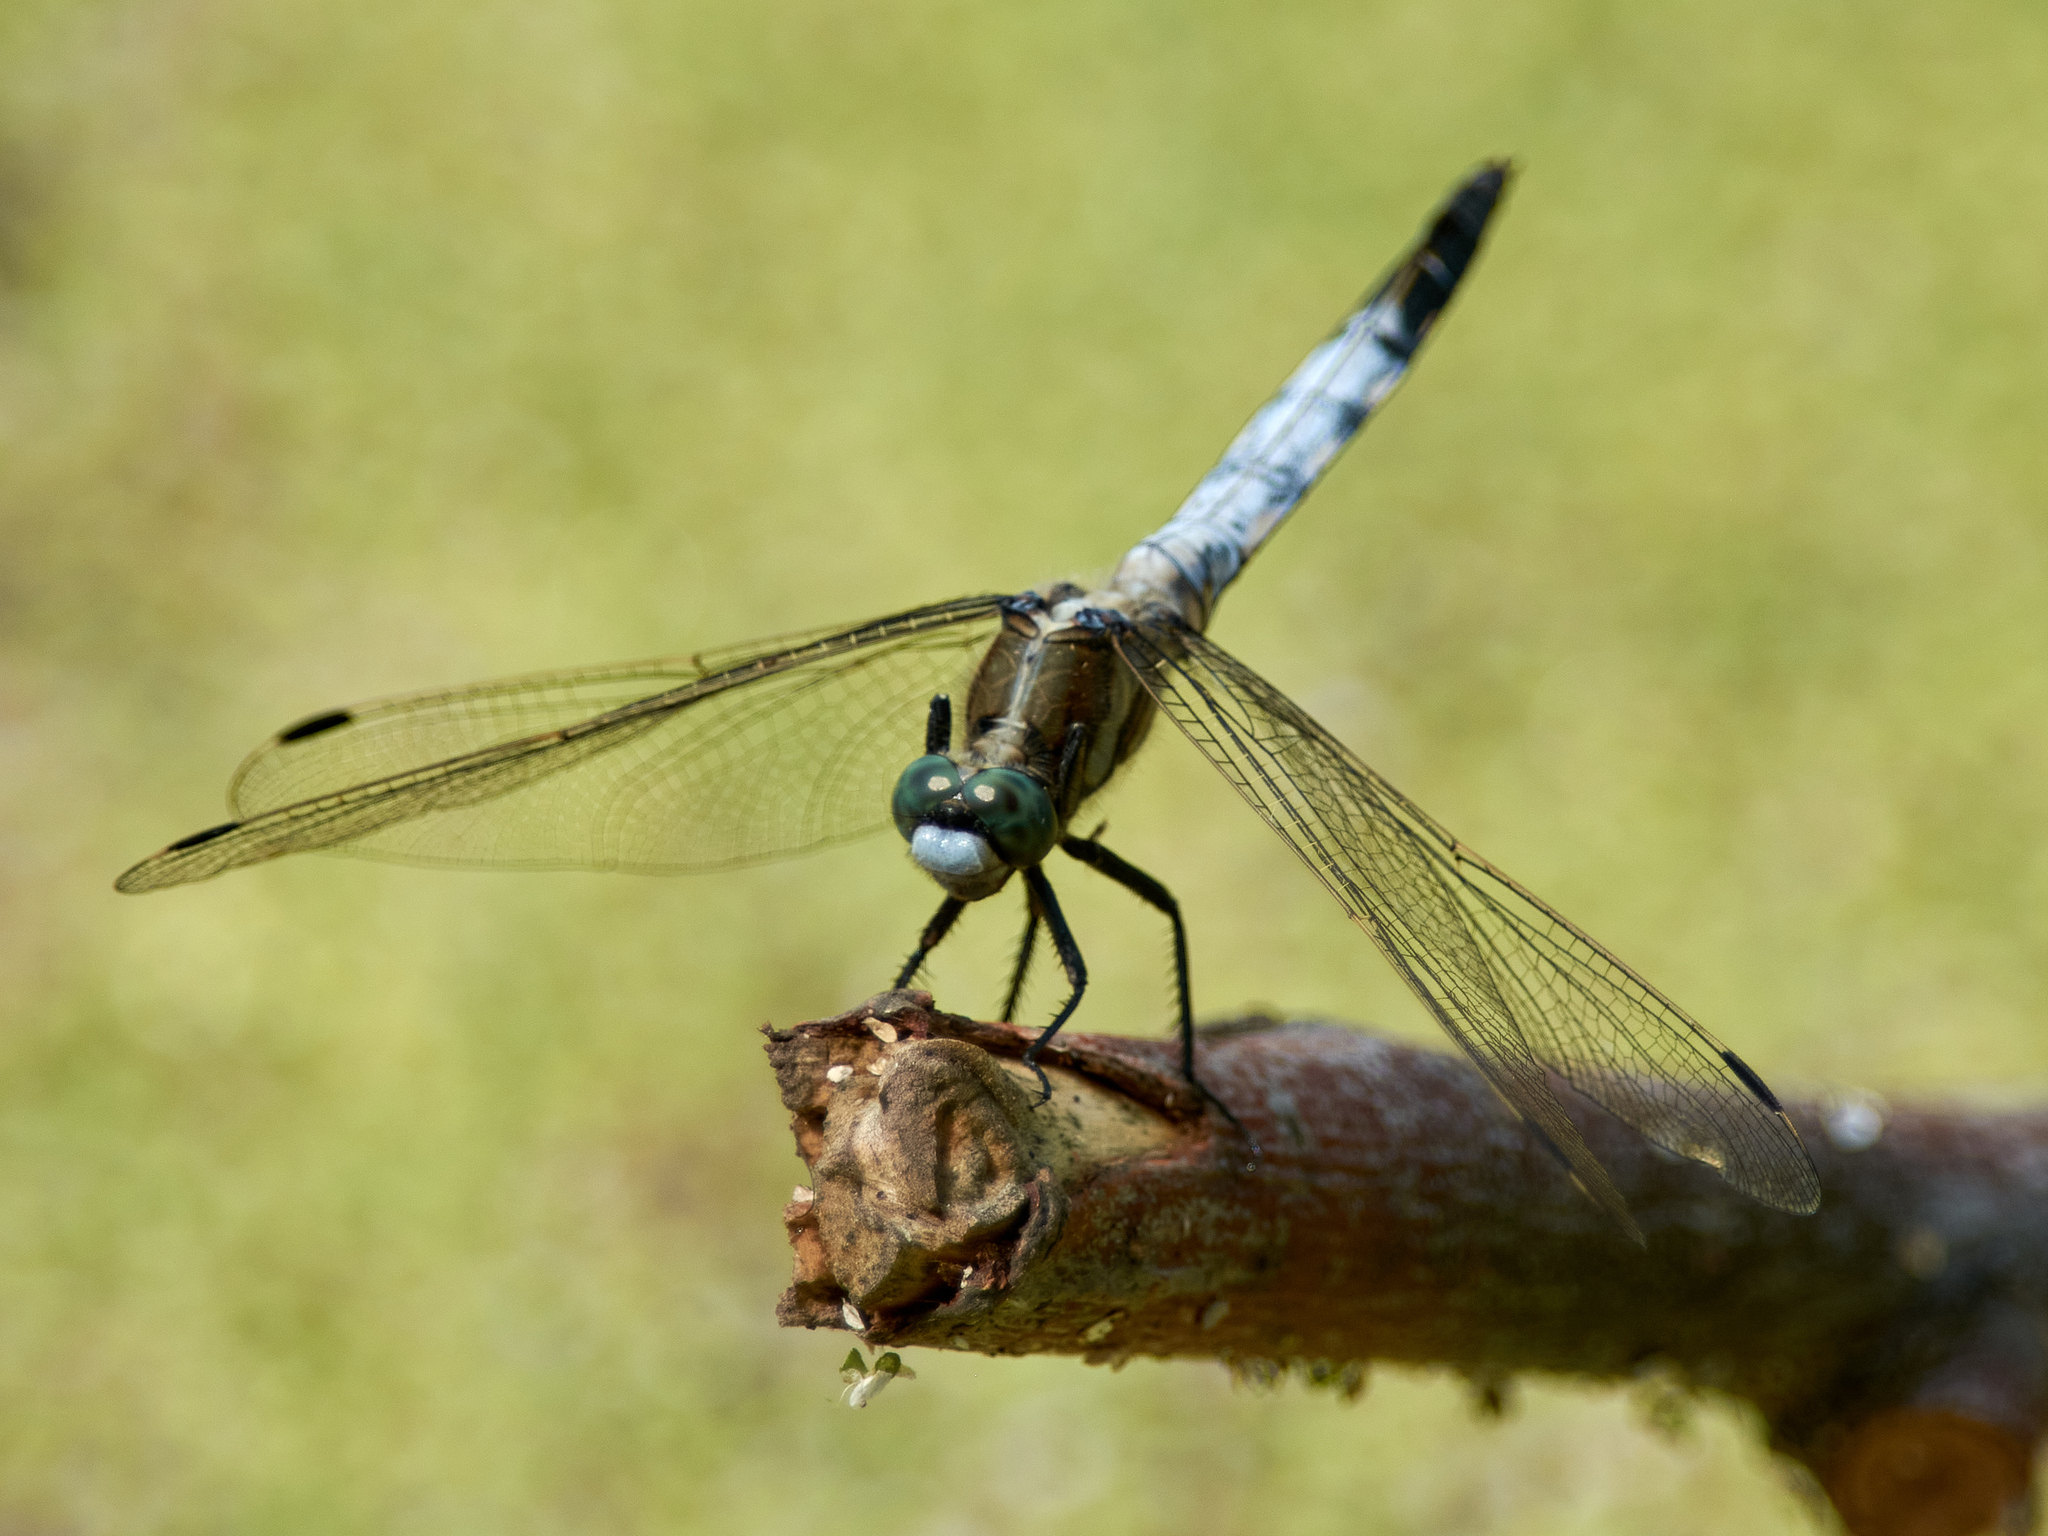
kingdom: Animalia
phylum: Arthropoda
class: Insecta
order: Odonata
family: Libellulidae
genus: Orthetrum
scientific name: Orthetrum albistylum
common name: White-tailed skimmer
